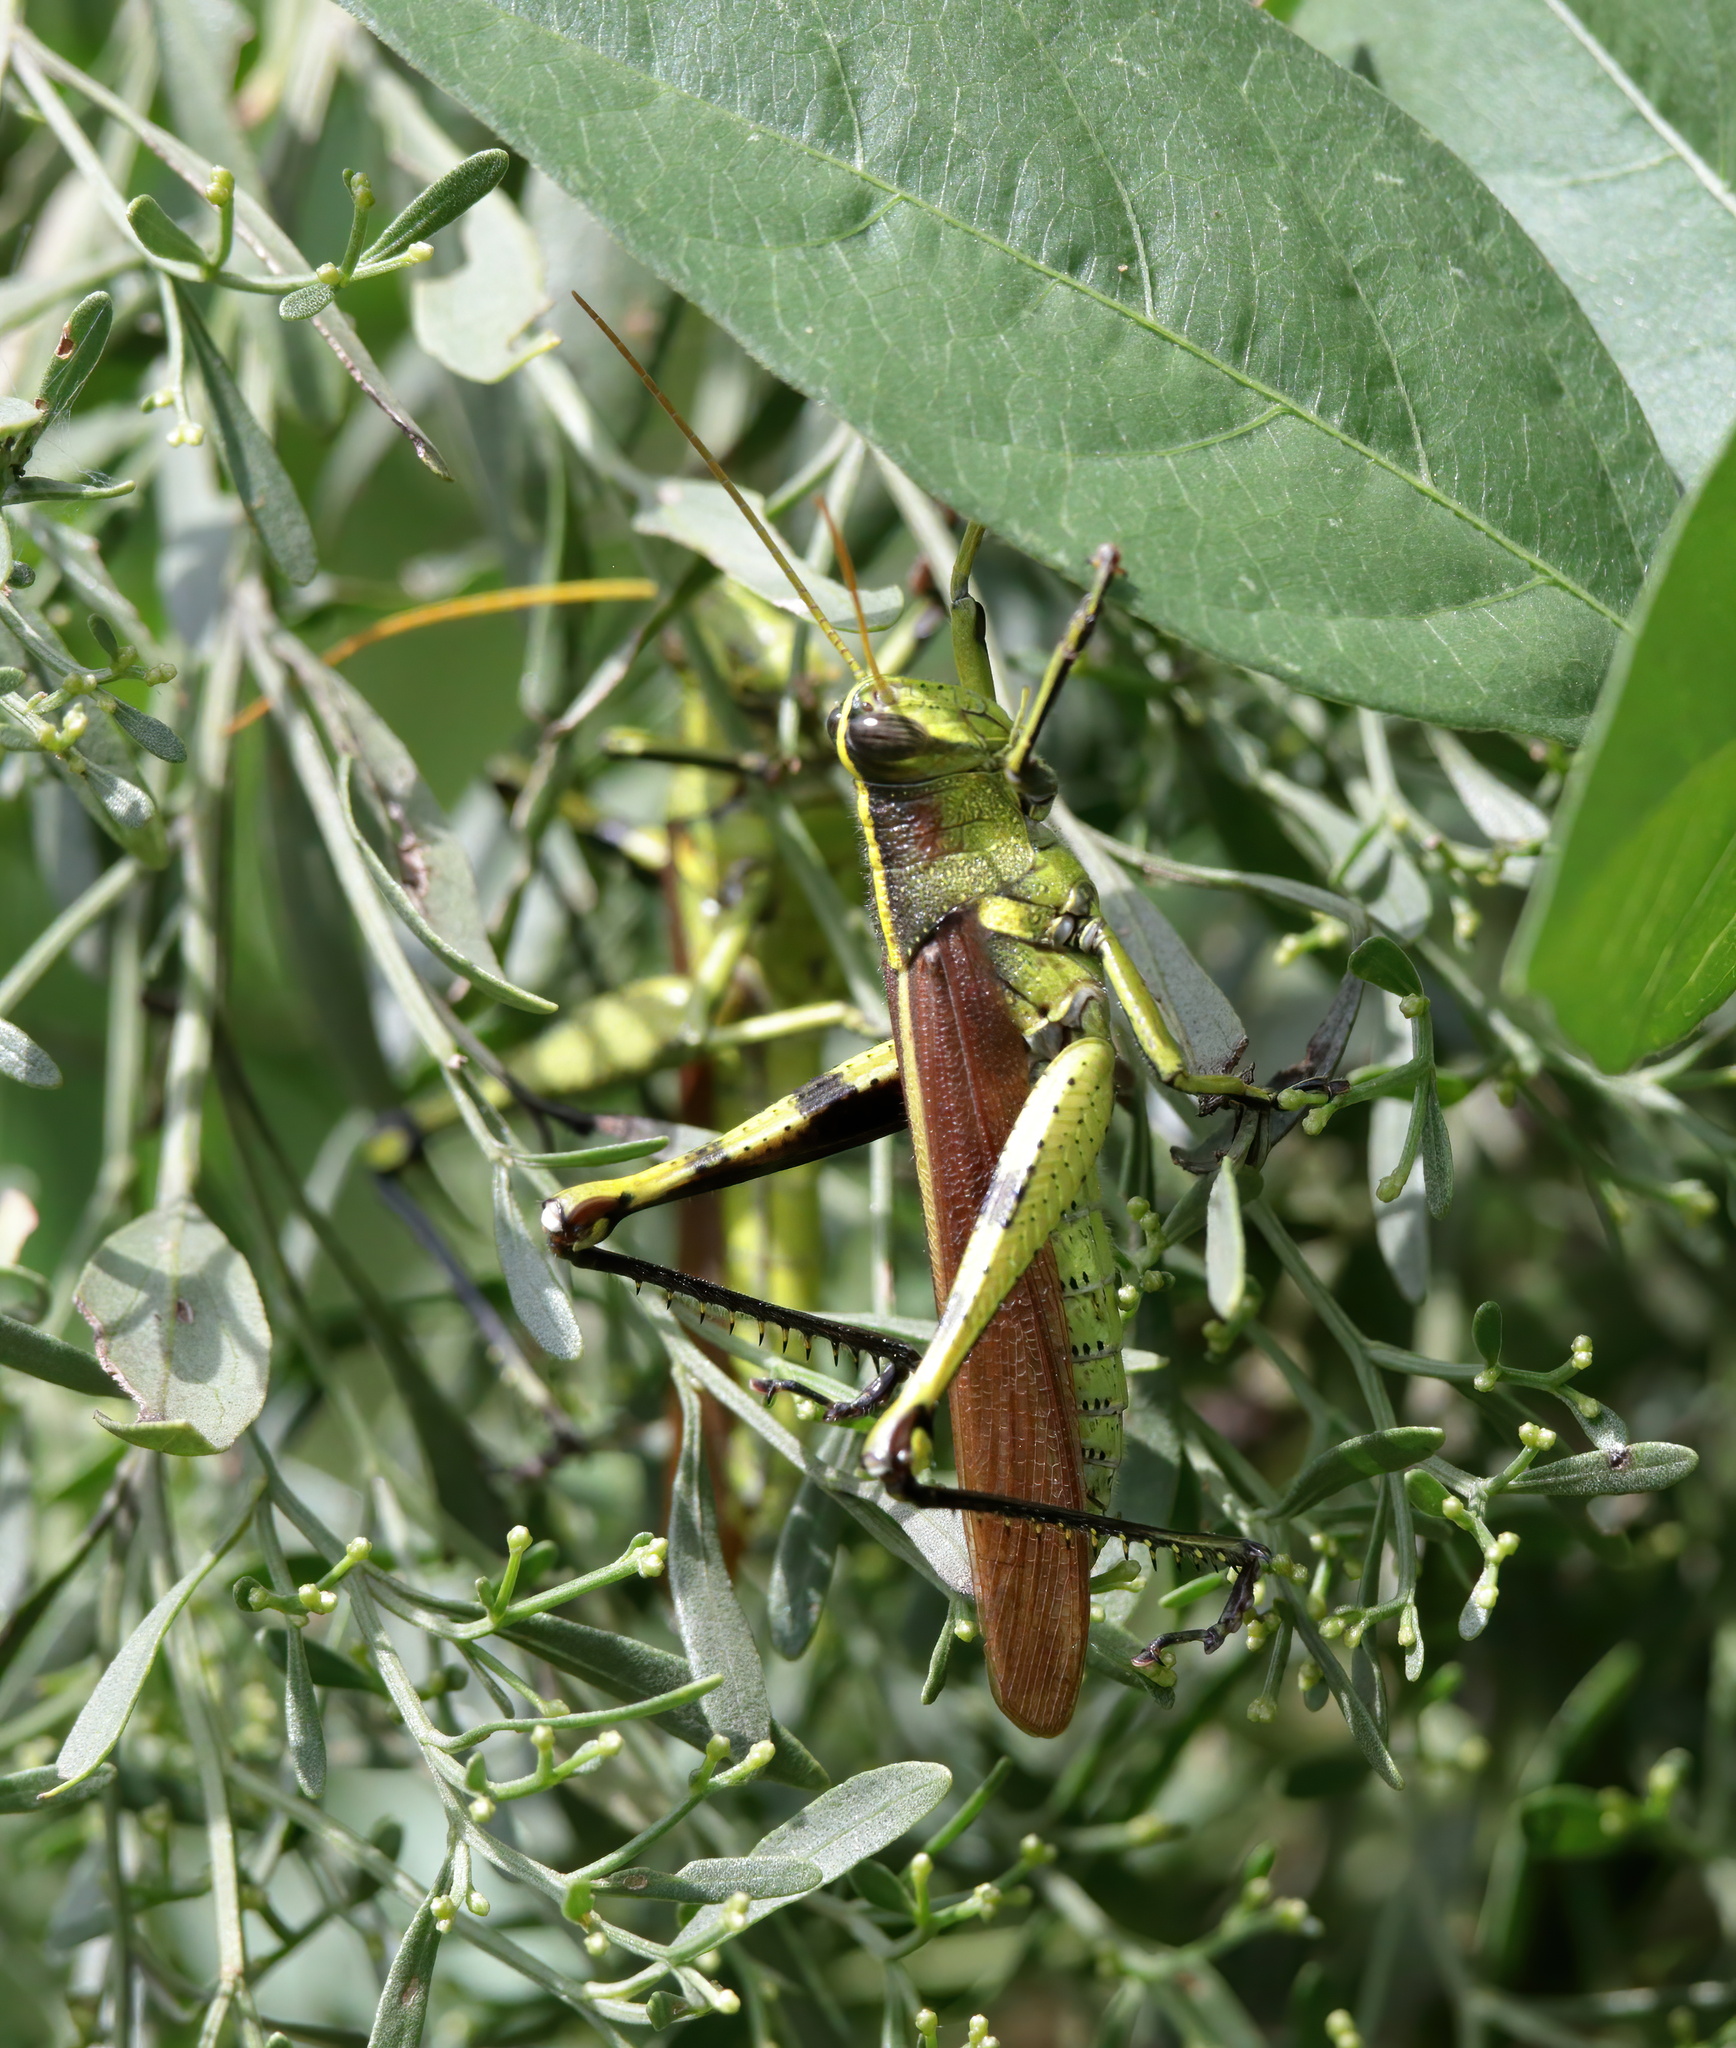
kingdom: Animalia
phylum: Arthropoda
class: Insecta
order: Orthoptera
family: Acrididae
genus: Schistocerca
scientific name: Schistocerca obscura
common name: Obscure bird grasshopper
